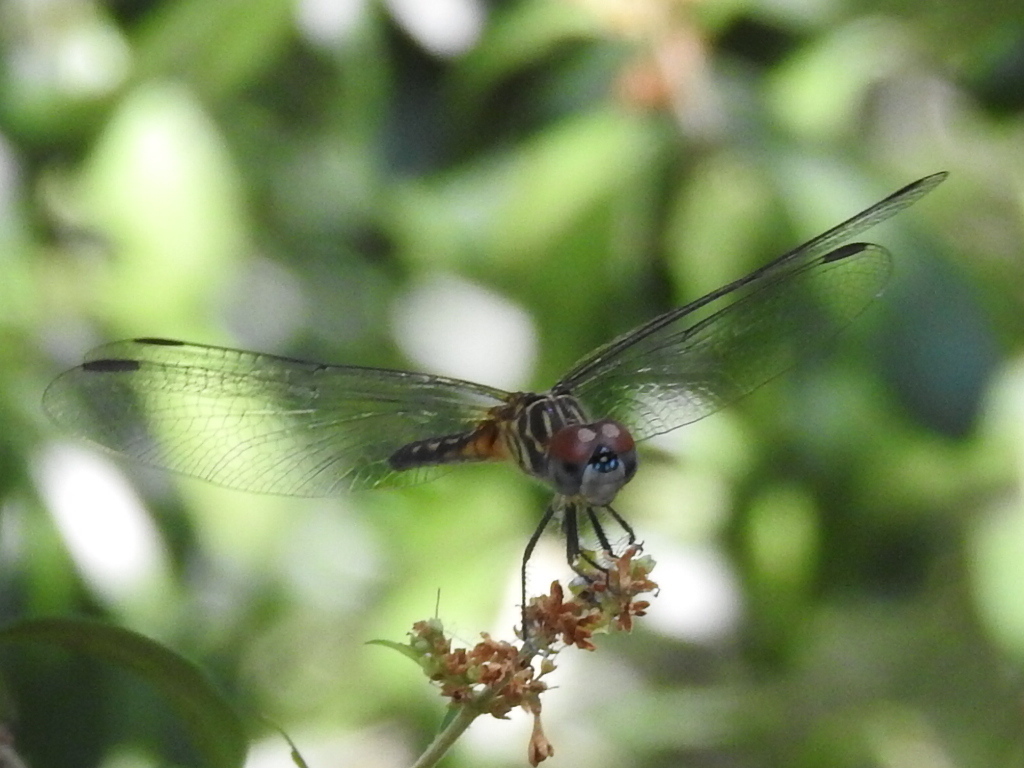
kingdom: Animalia
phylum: Arthropoda
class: Insecta
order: Odonata
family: Libellulidae
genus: Pachydiplax
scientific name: Pachydiplax longipennis
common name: Blue dasher
